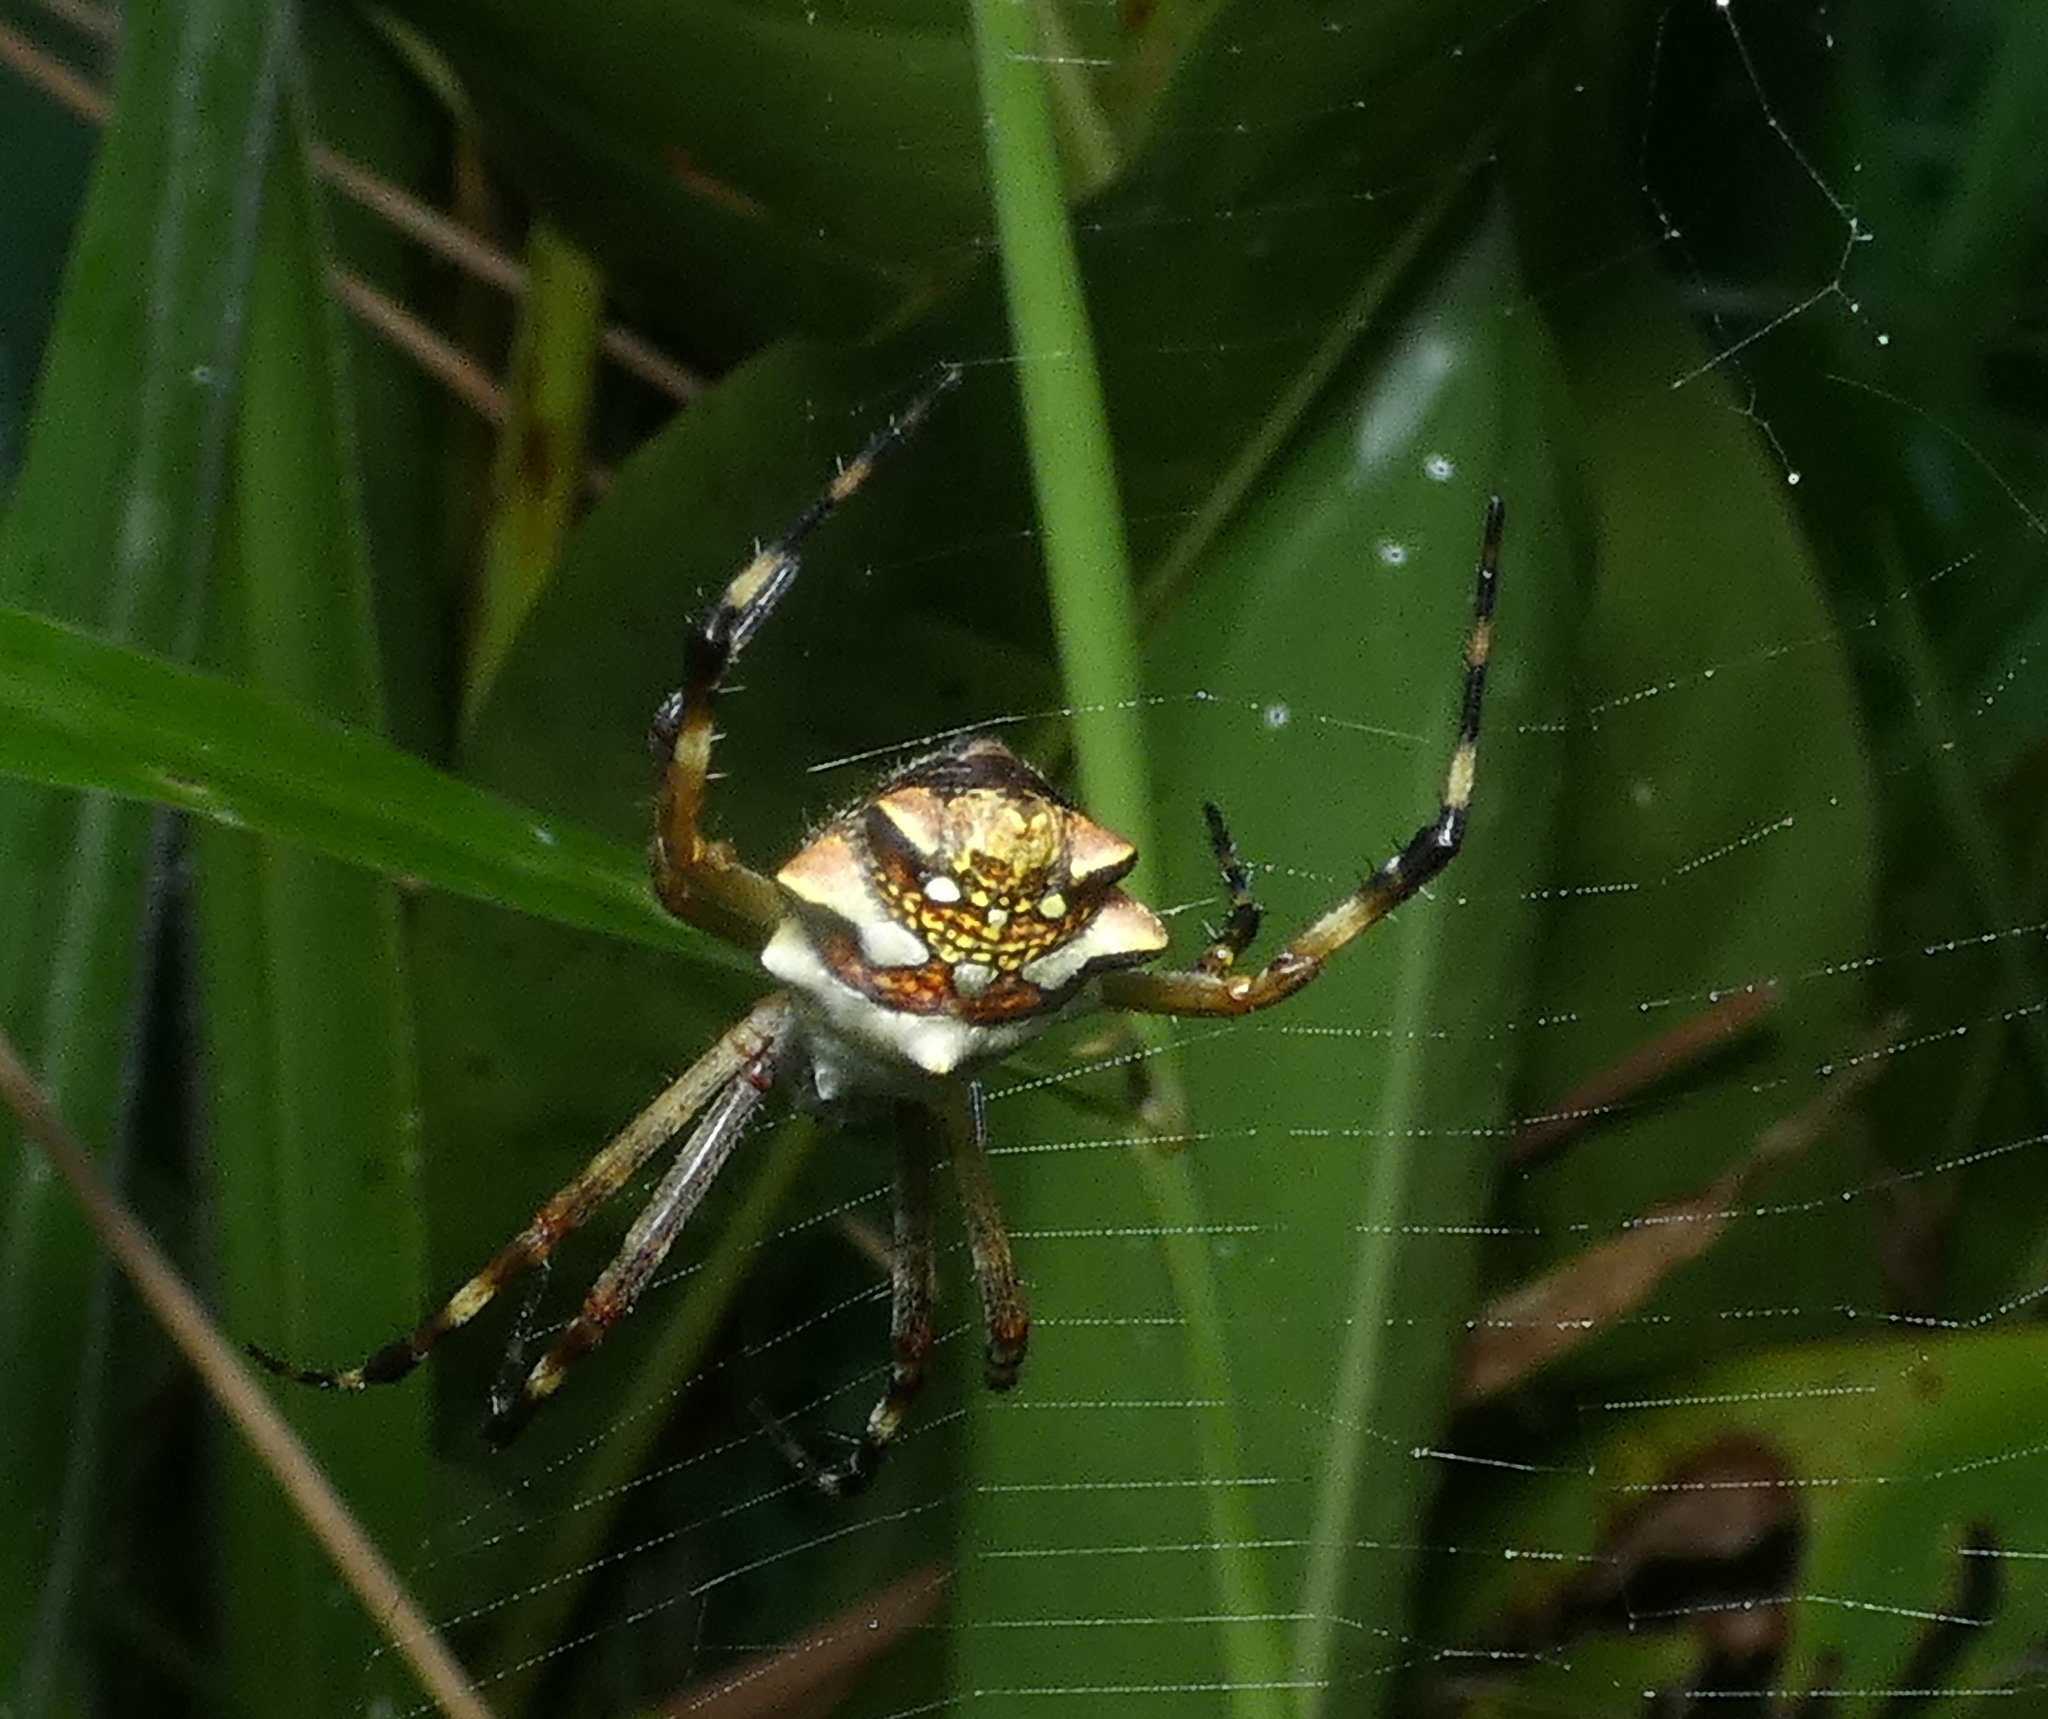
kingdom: Animalia
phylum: Arthropoda
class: Arachnida
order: Araneae
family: Araneidae
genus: Argiope
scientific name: Argiope argentata
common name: Orb weavers
